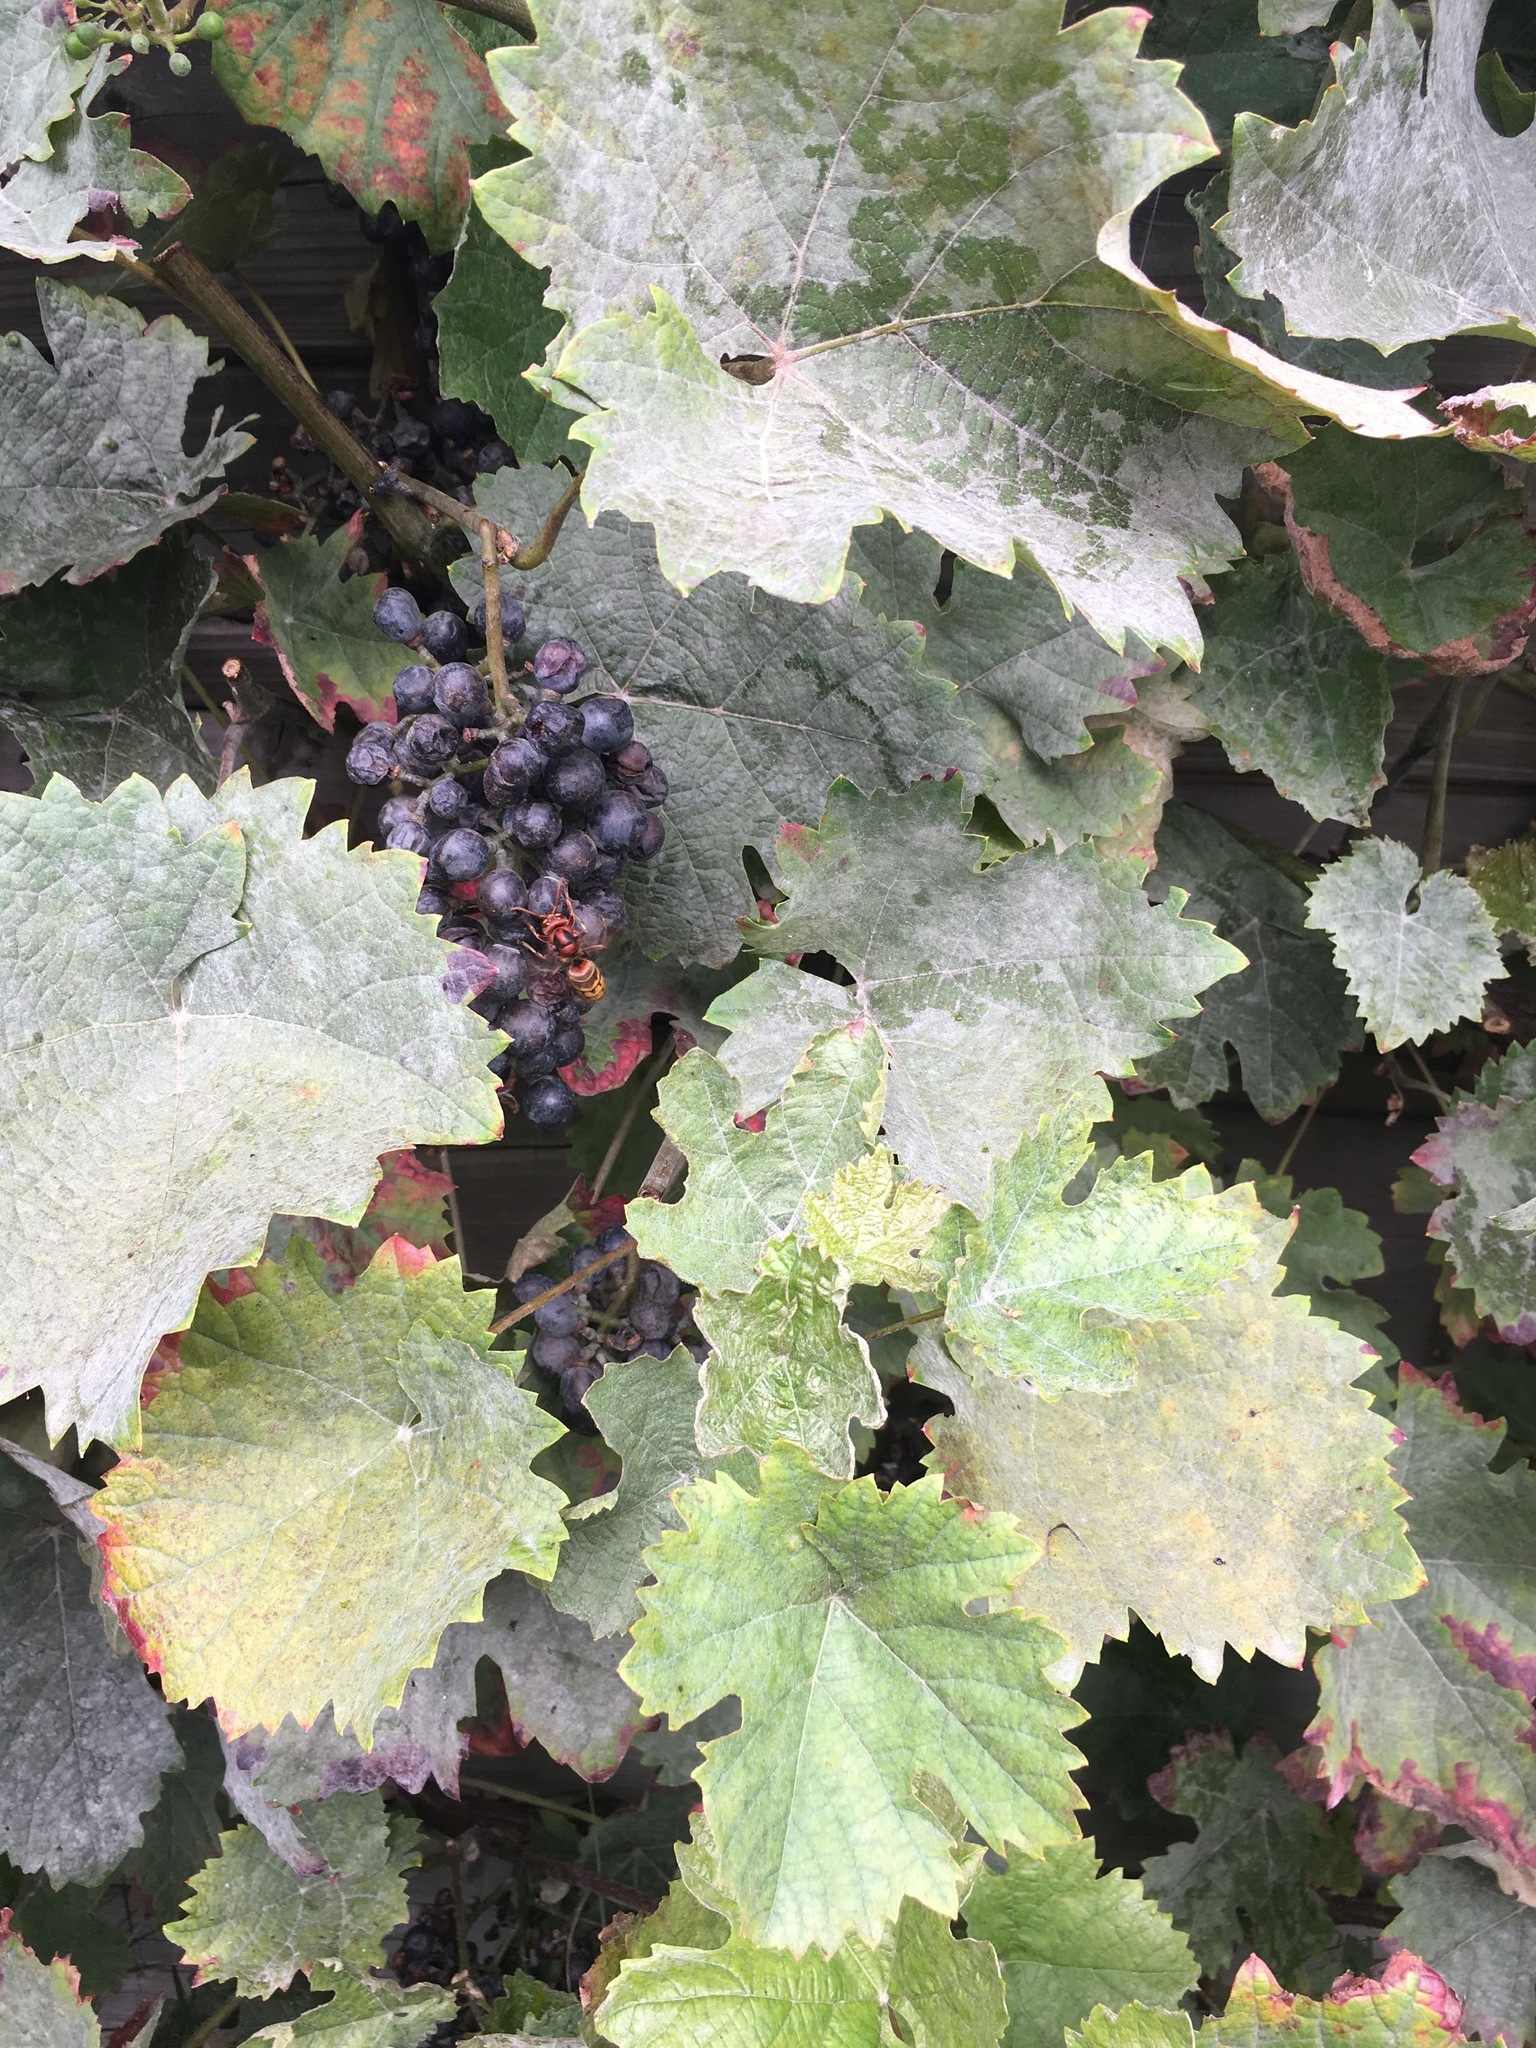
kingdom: Animalia
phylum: Arthropoda
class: Insecta
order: Hymenoptera
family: Vespidae
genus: Vespa
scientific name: Vespa crabro
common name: Hornet
